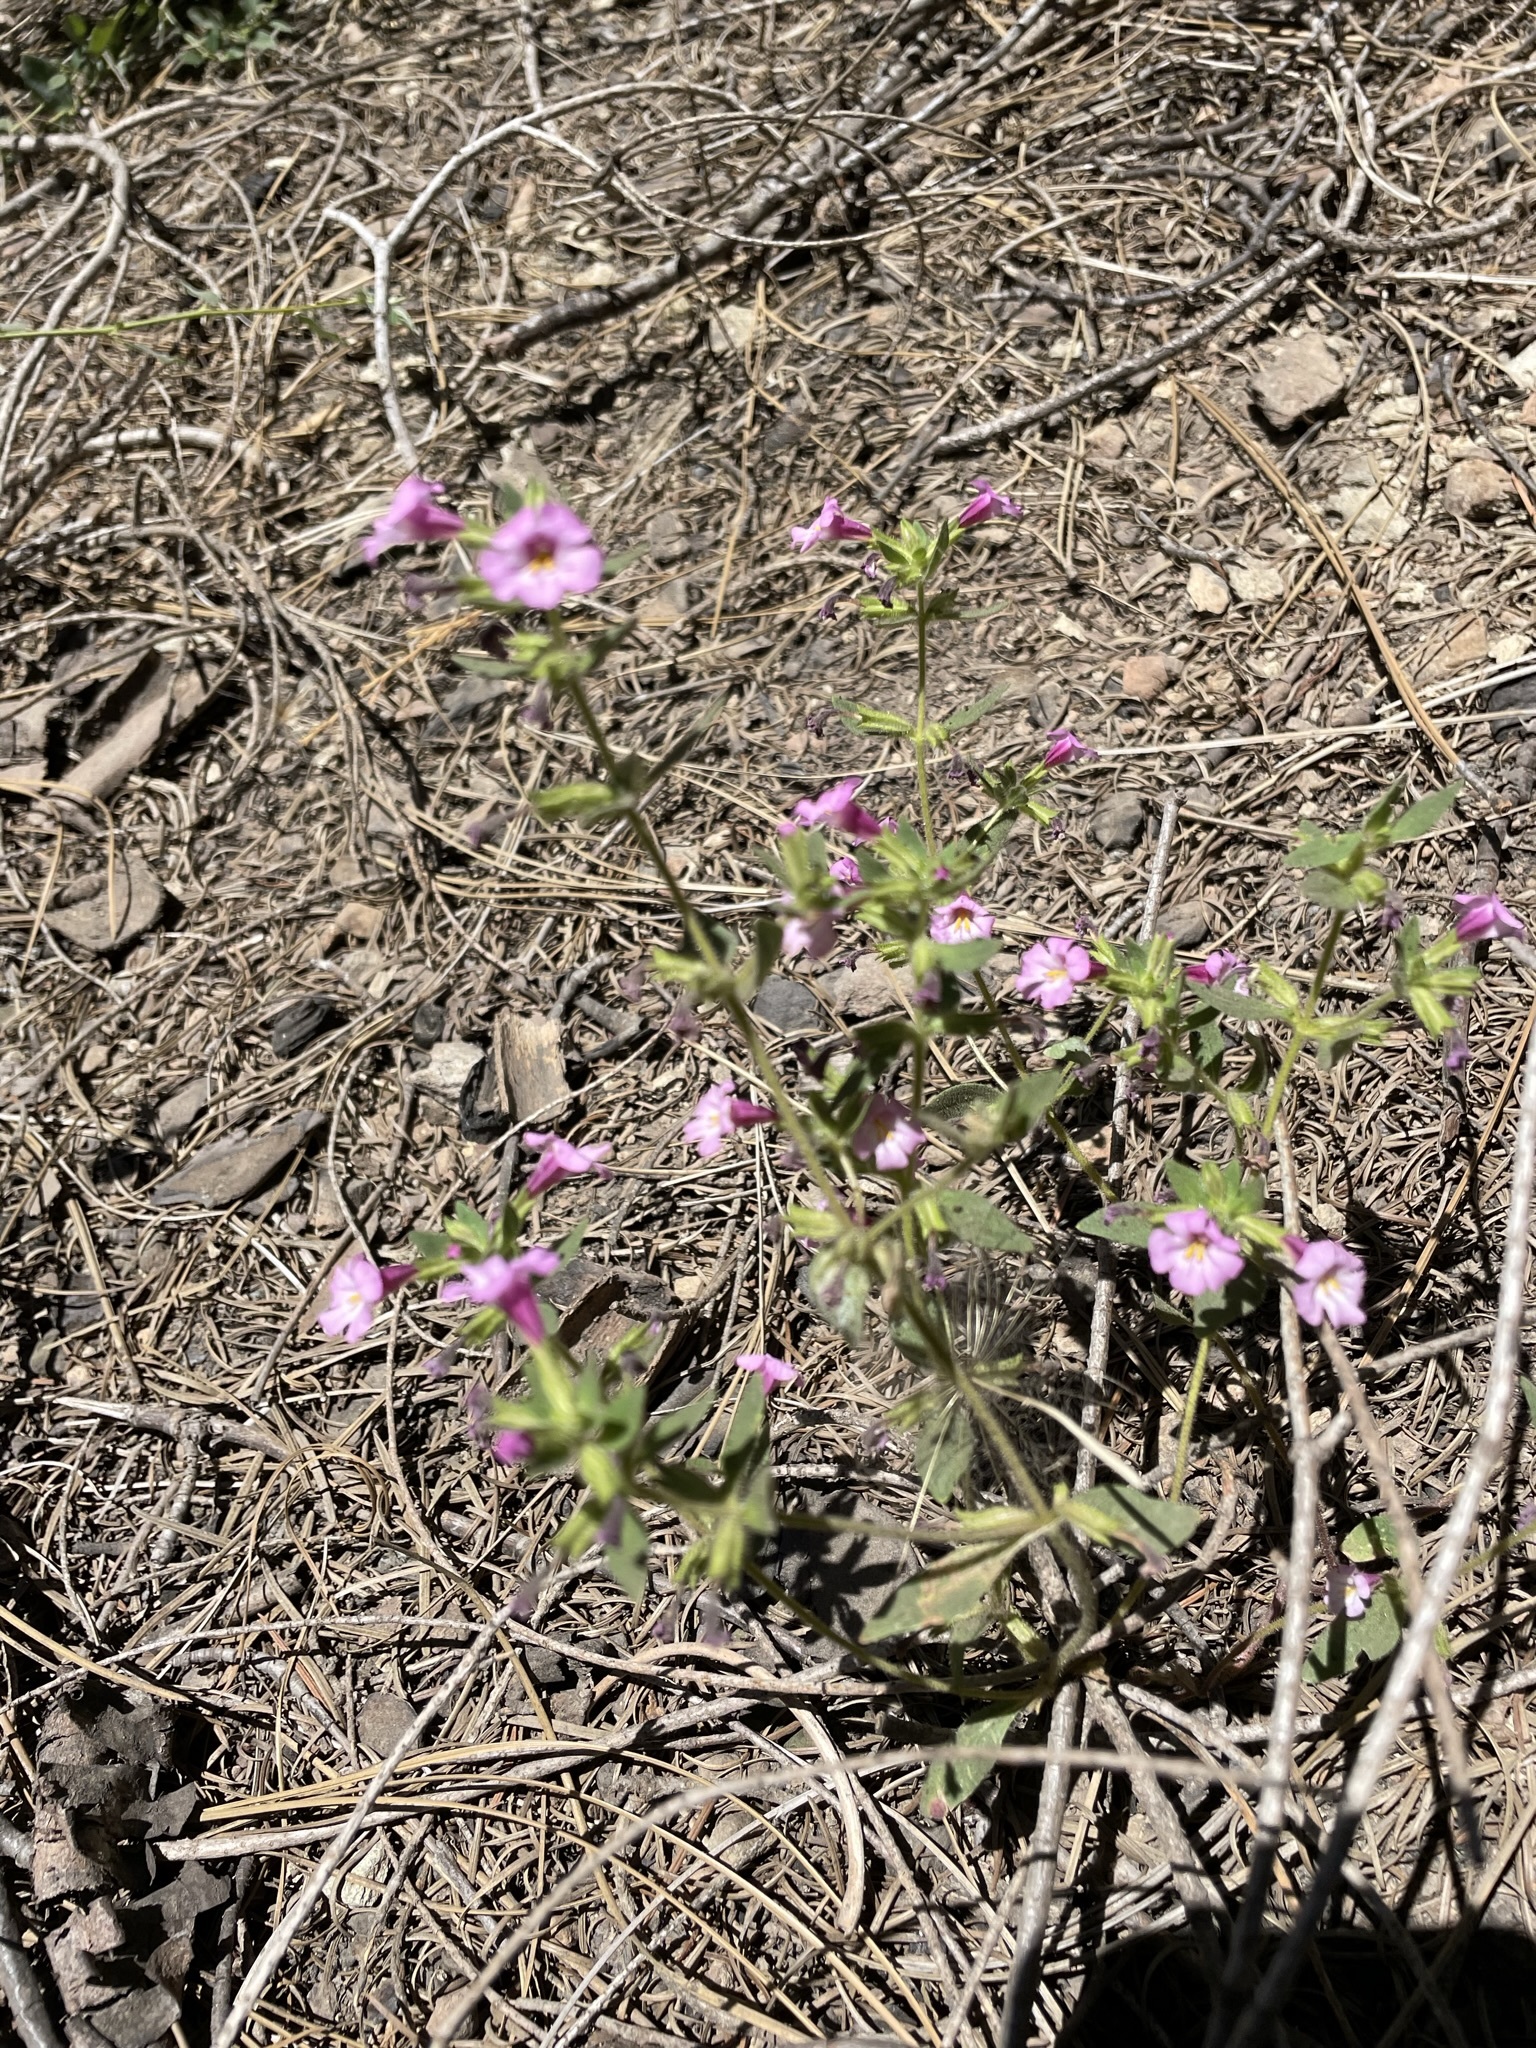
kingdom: Plantae
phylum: Tracheophyta
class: Magnoliopsida
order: Lamiales
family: Phrymaceae
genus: Diplacus
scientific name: Diplacus torreyi
